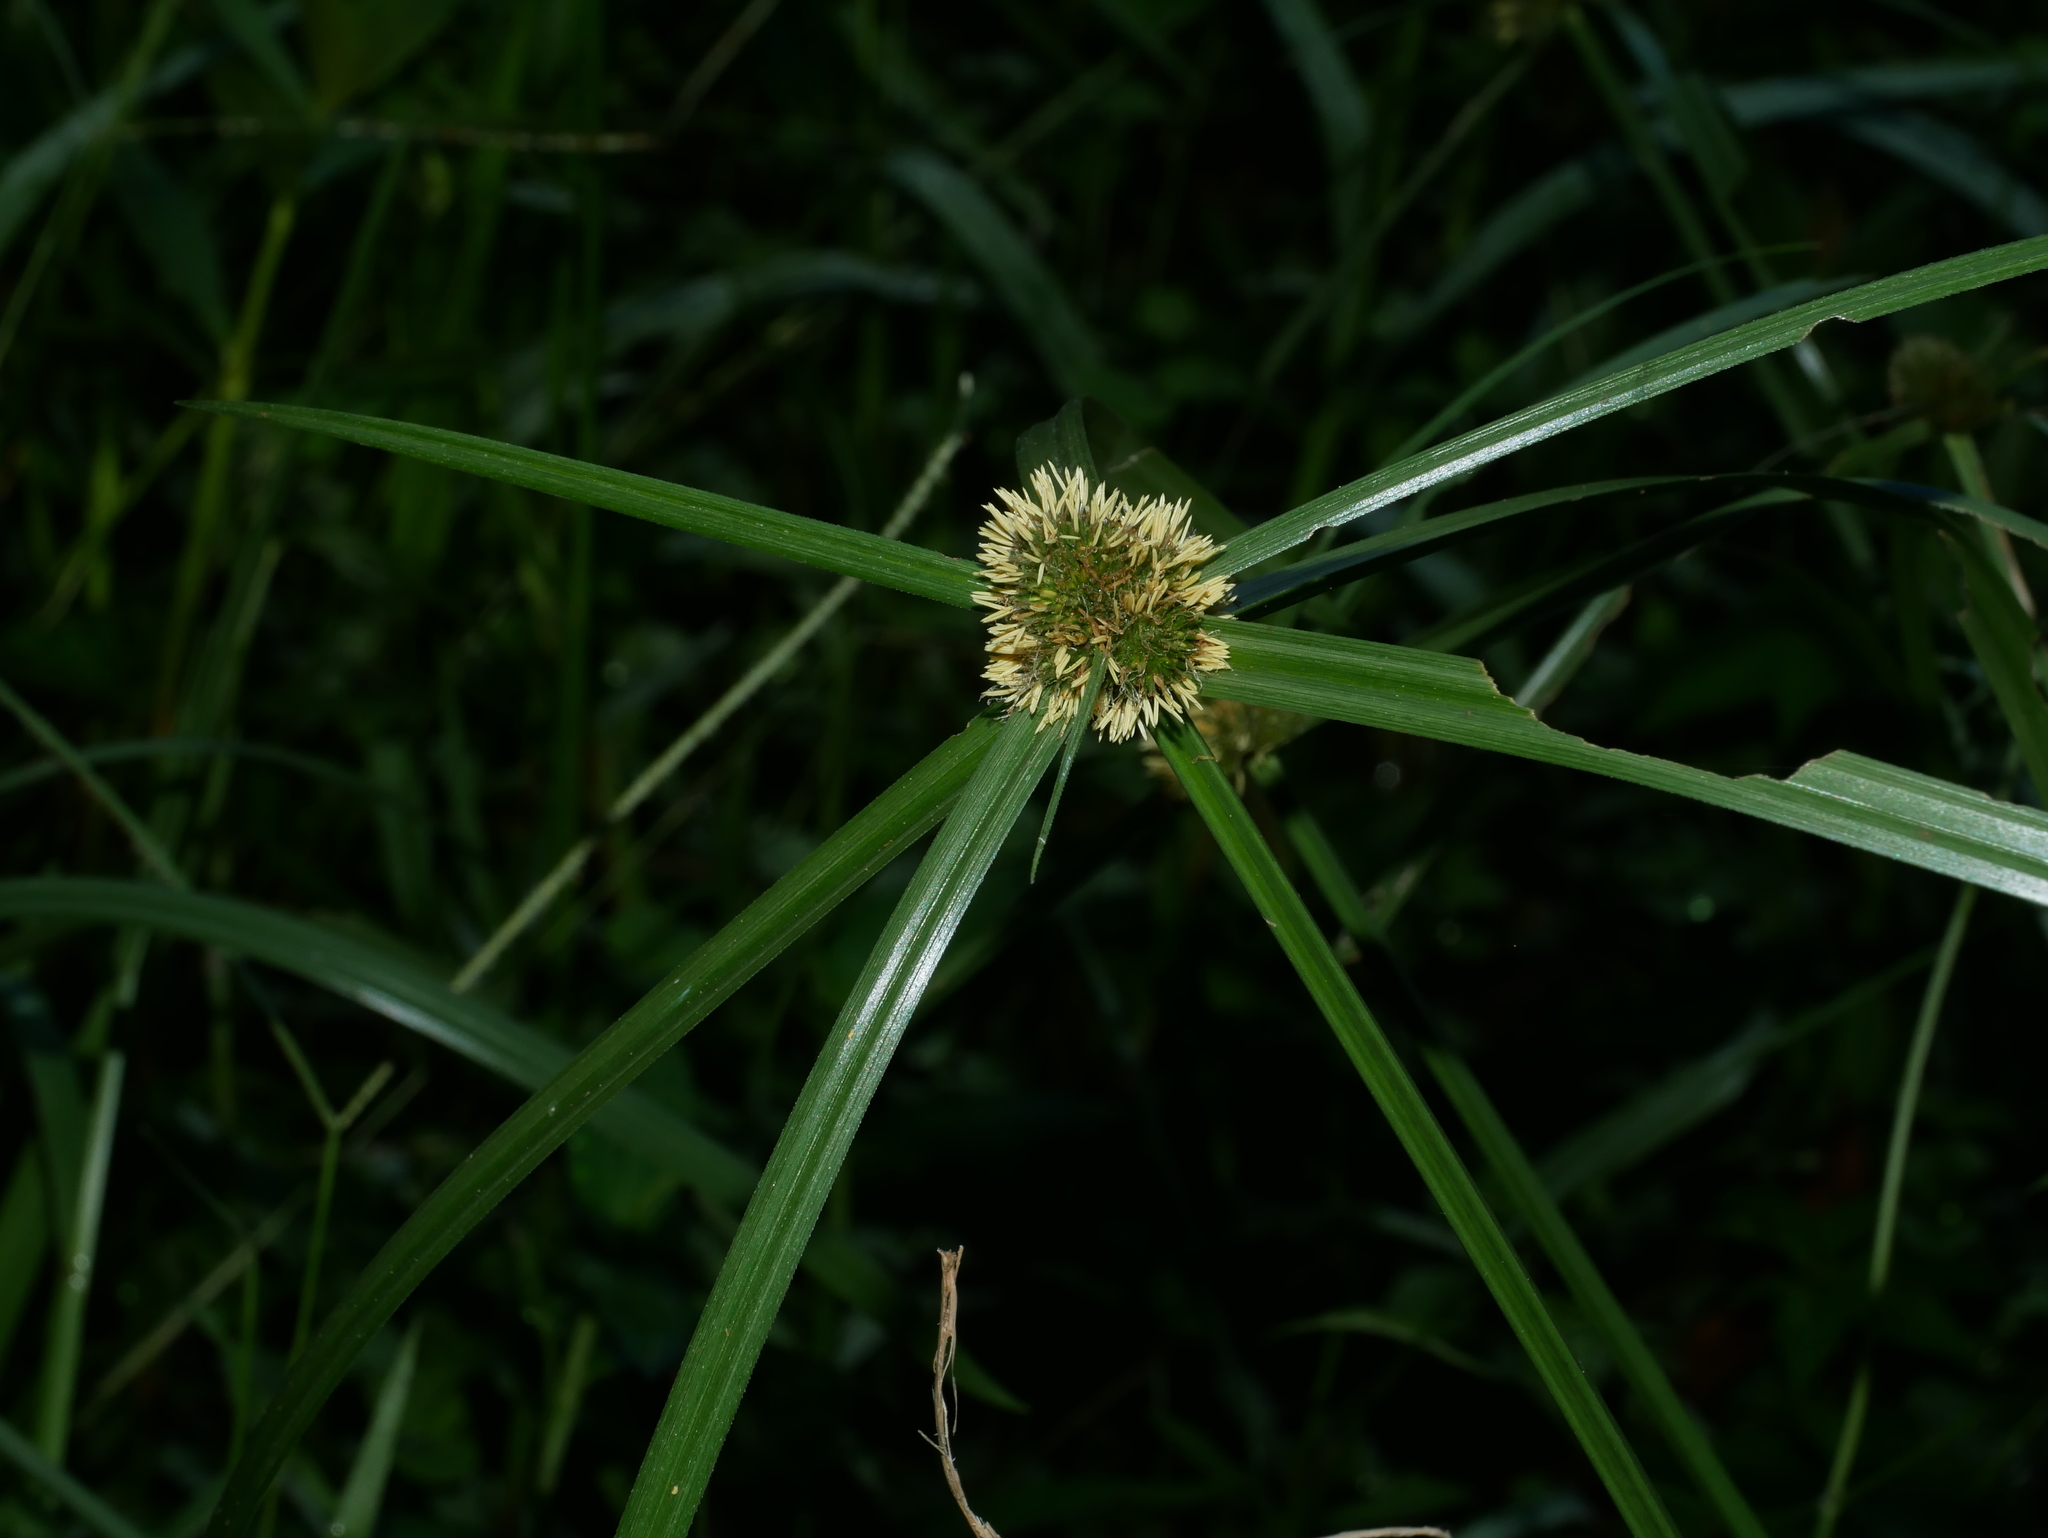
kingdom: Plantae
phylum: Tracheophyta
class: Liliopsida
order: Poales
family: Cyperaceae
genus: Cyperus
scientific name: Cyperus aromaticus
